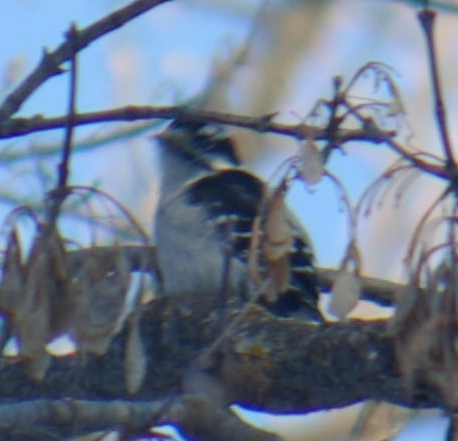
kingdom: Animalia
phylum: Chordata
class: Aves
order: Piciformes
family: Picidae
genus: Dryobates
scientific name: Dryobates pubescens
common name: Downy woodpecker
